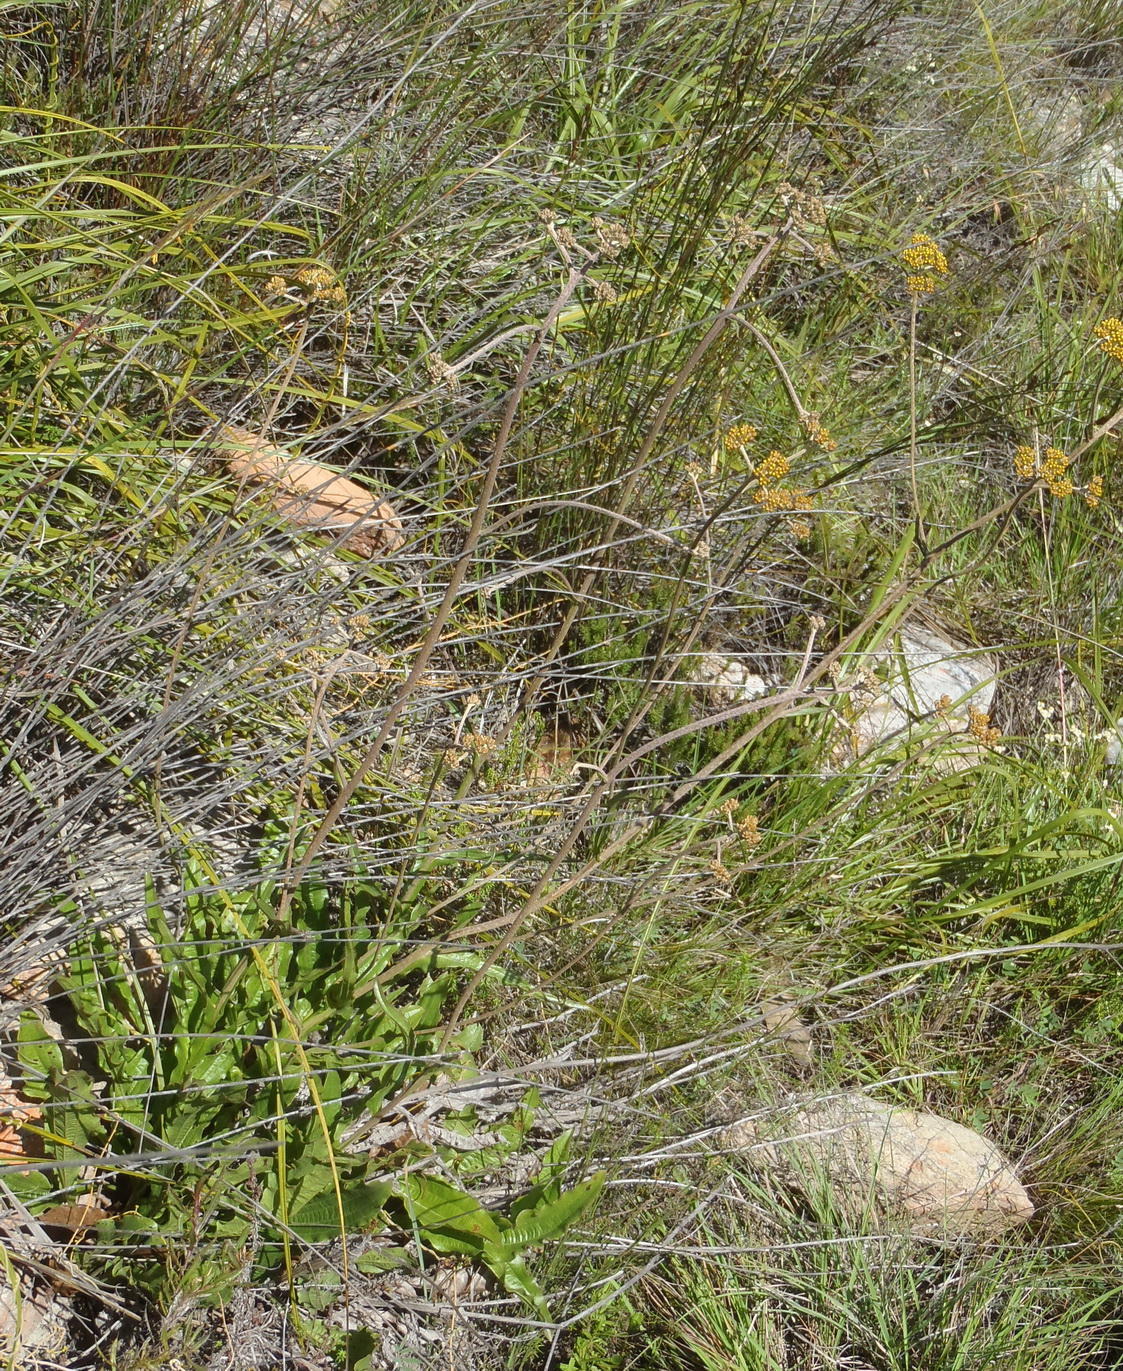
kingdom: Plantae
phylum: Tracheophyta
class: Magnoliopsida
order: Asterales
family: Asteraceae
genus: Helichrysum
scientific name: Helichrysum nudifolium
